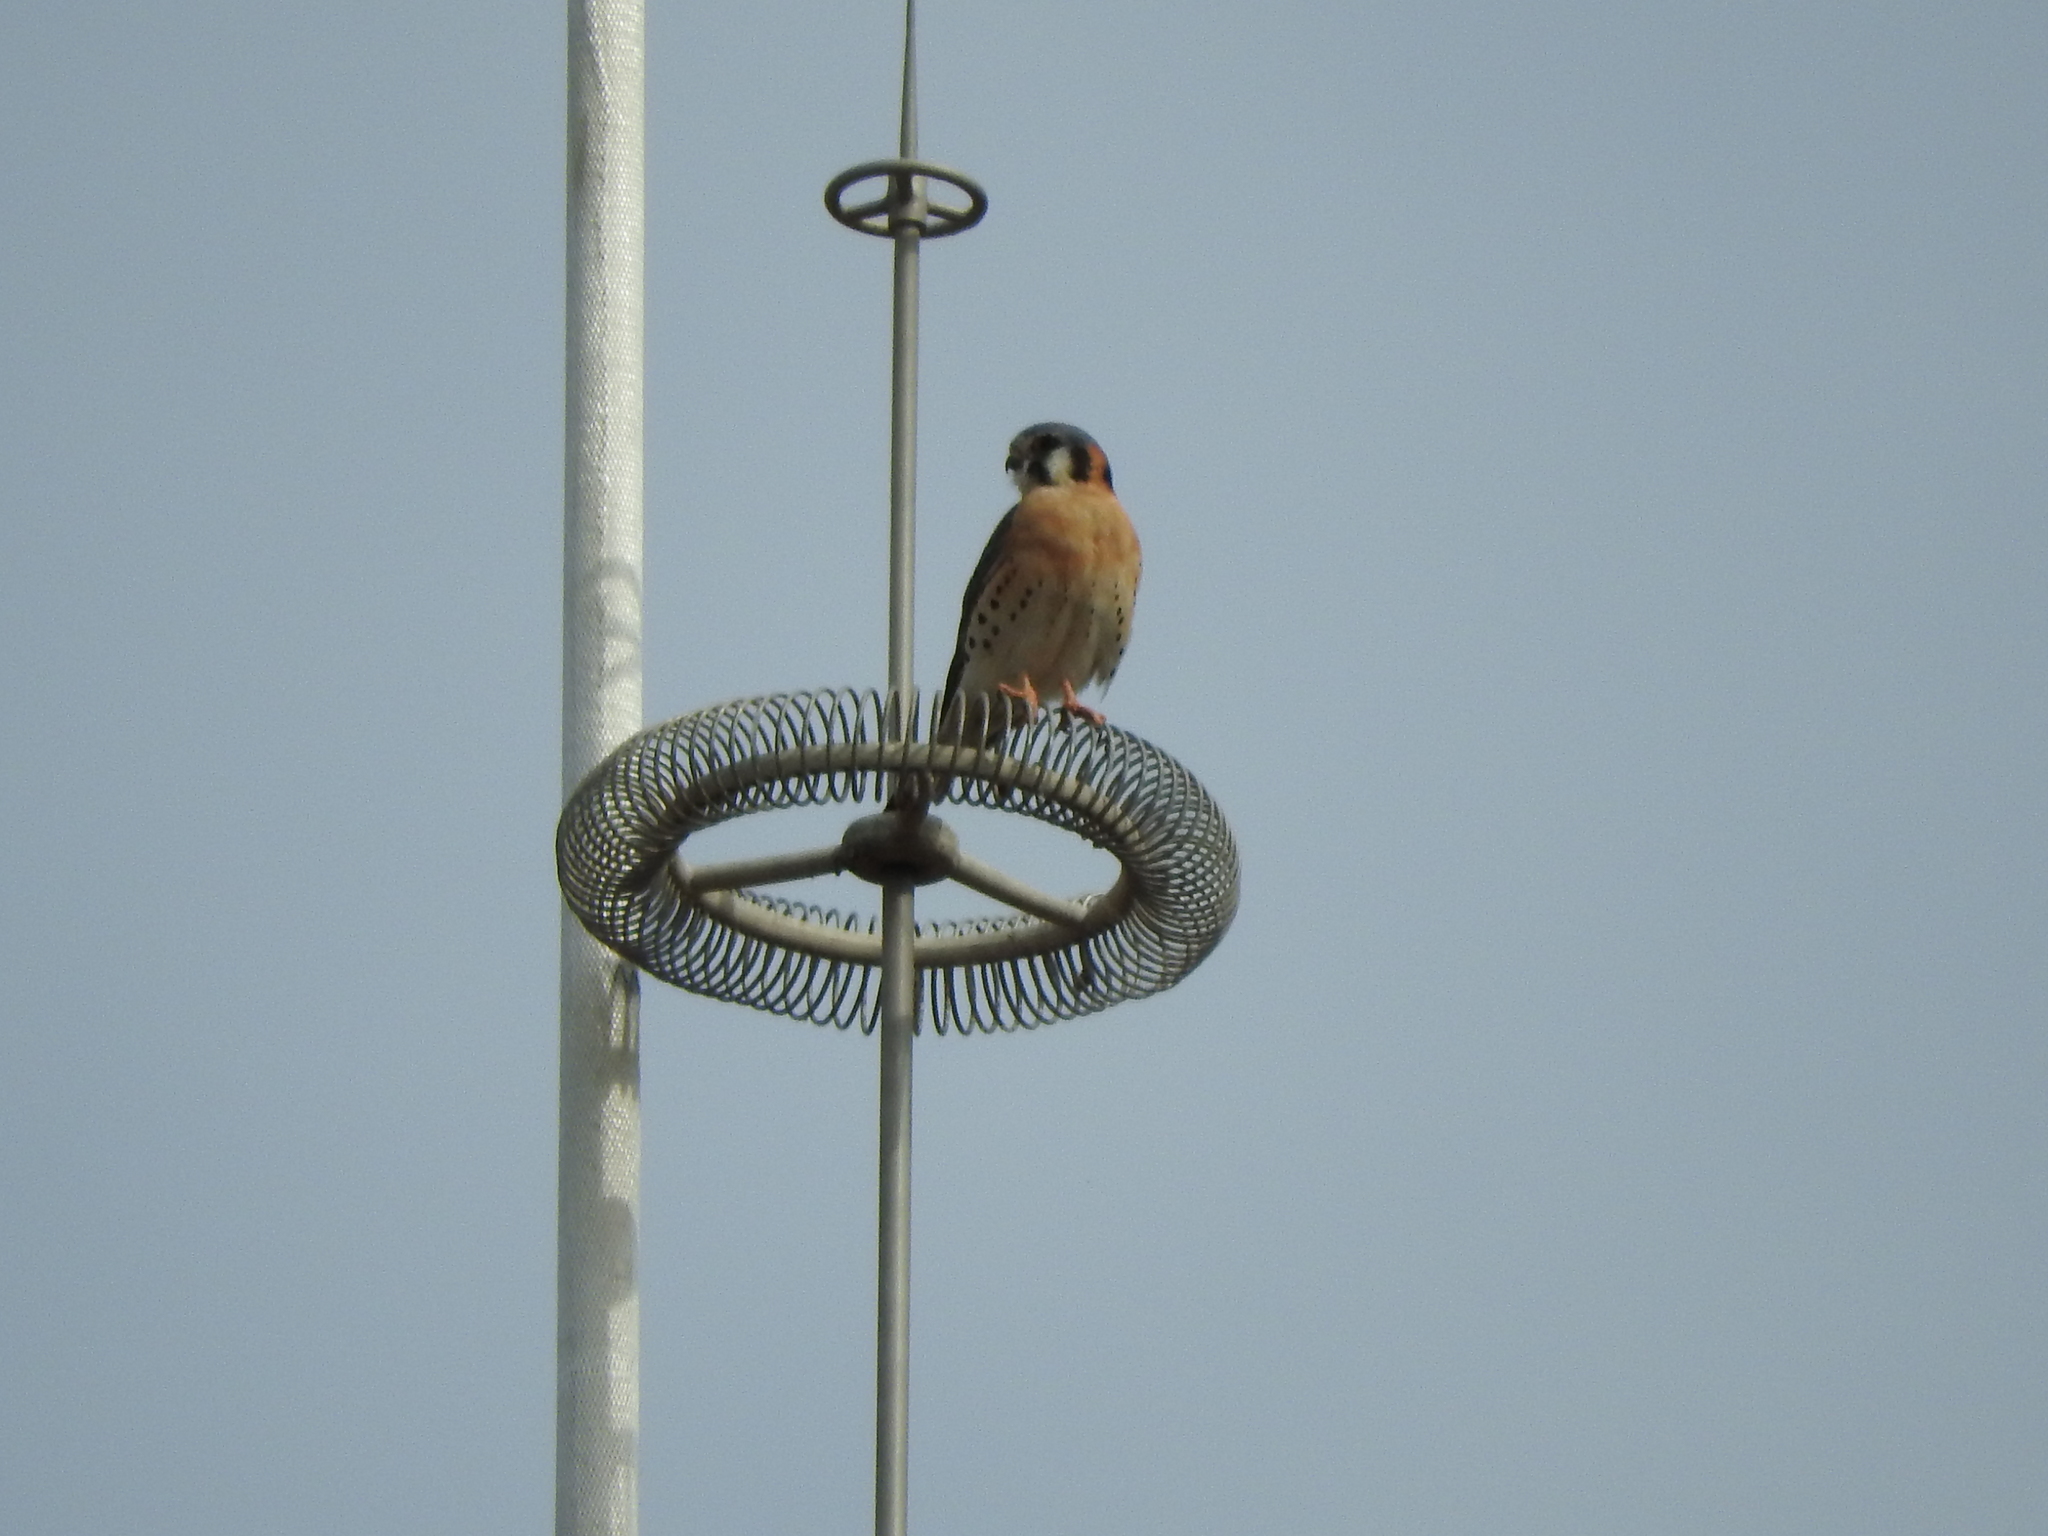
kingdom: Animalia
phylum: Chordata
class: Aves
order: Falconiformes
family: Falconidae
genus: Falco
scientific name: Falco sparverius
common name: American kestrel
